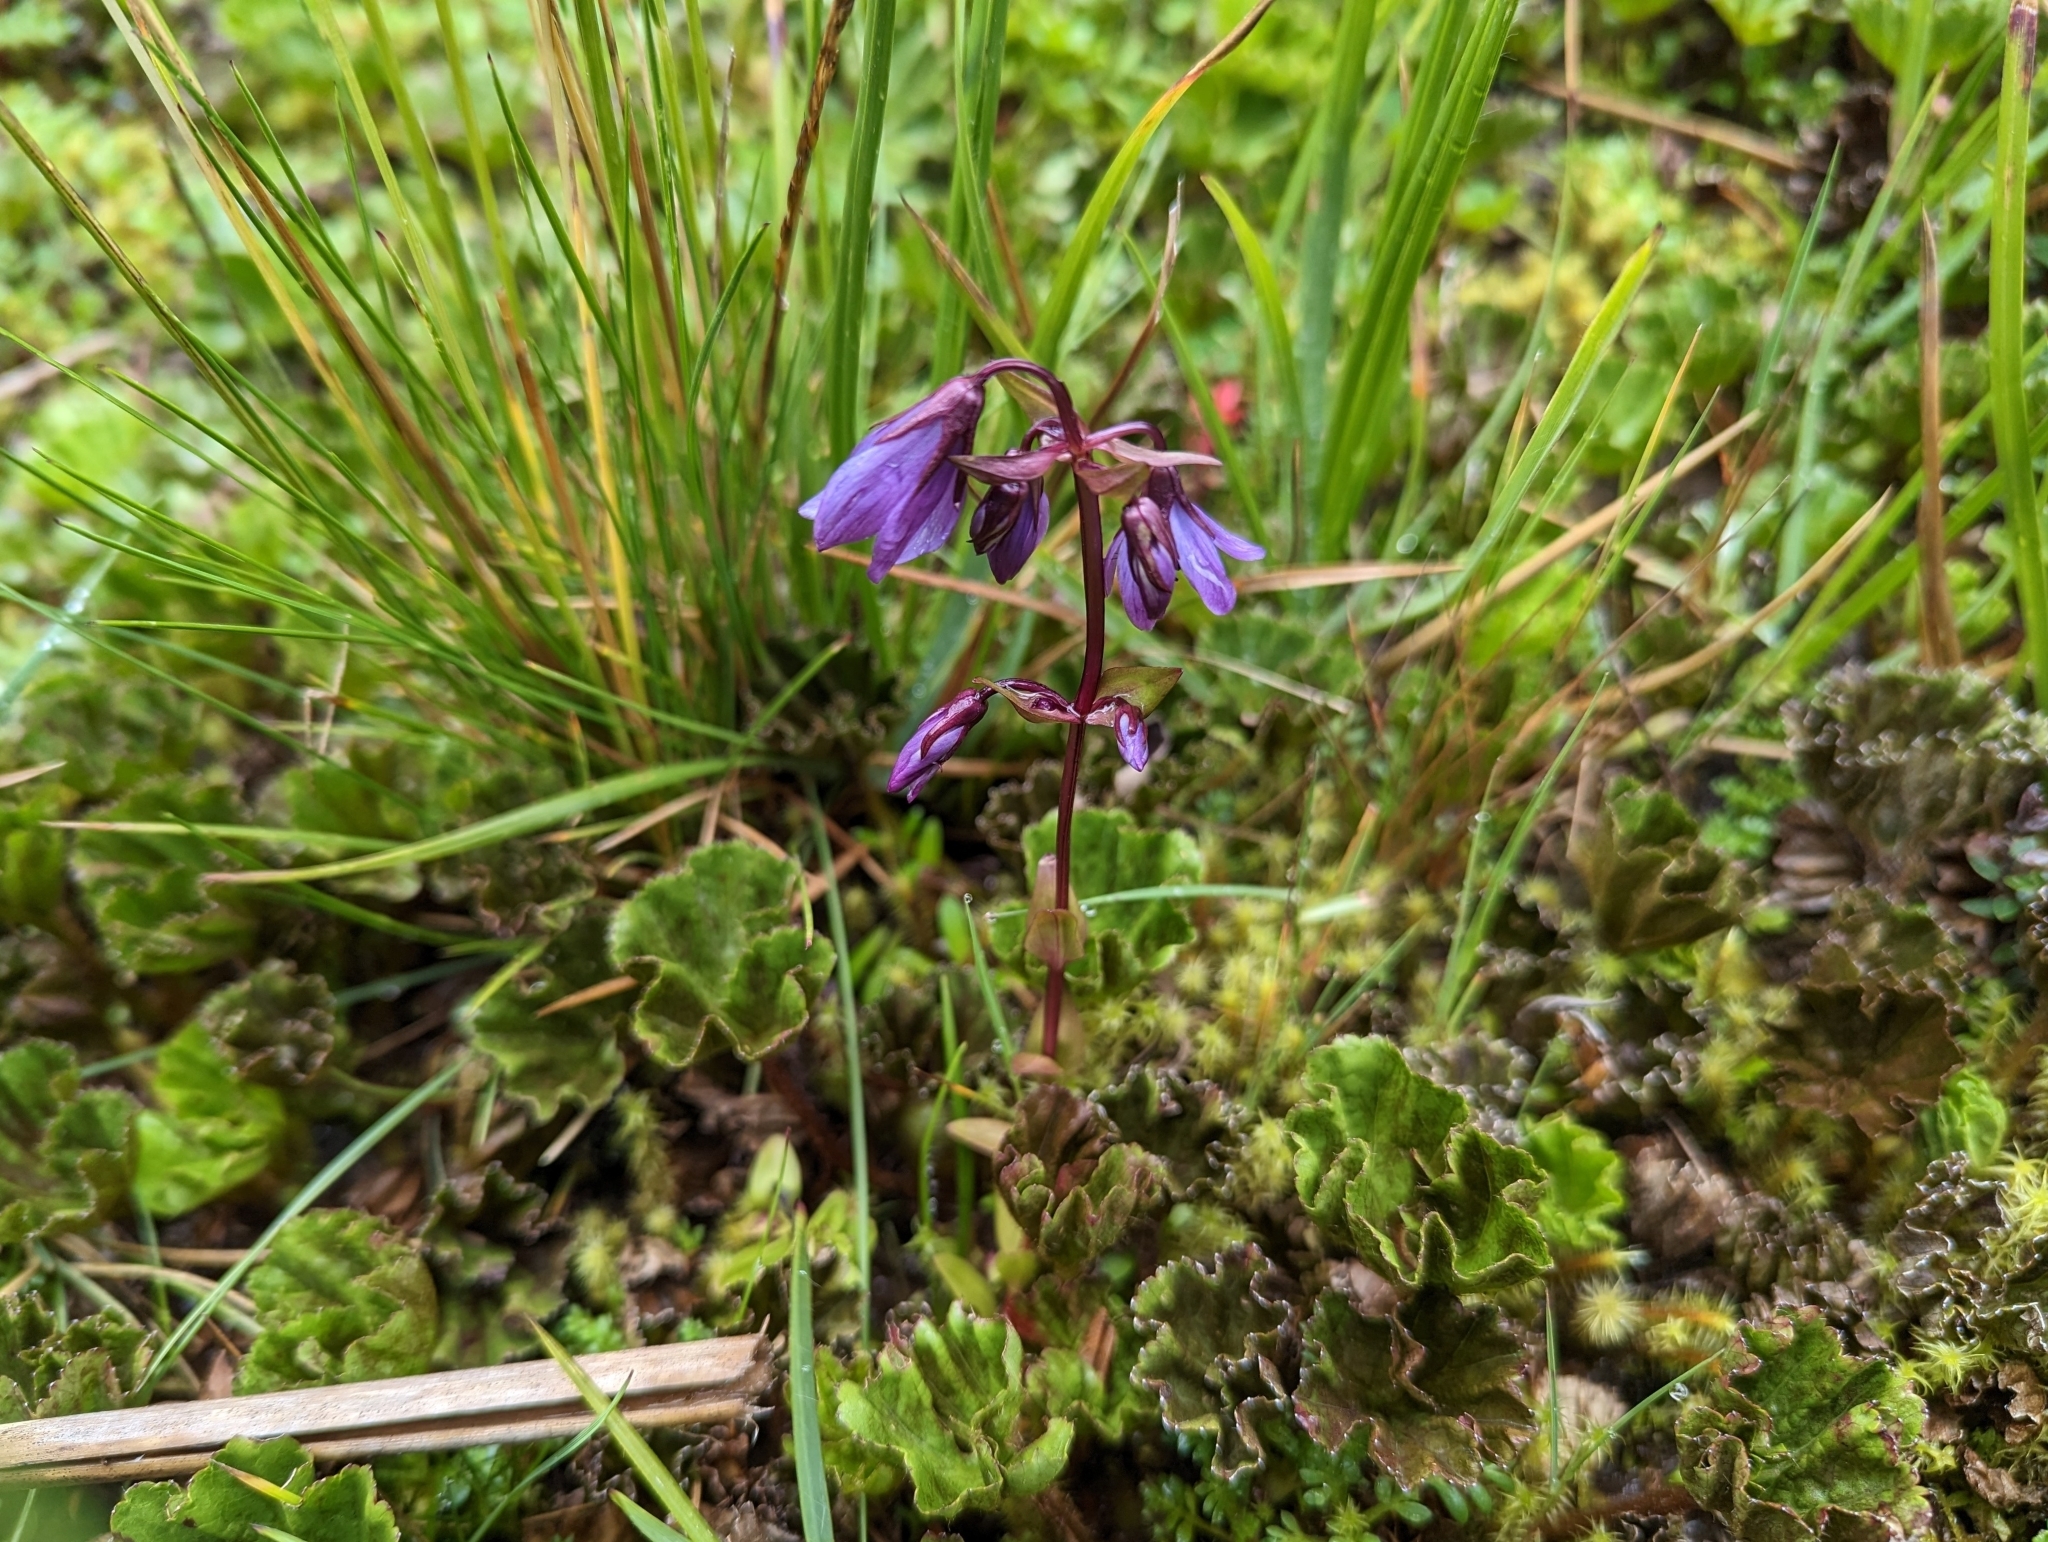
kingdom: Plantae
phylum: Tracheophyta
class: Magnoliopsida
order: Gentianales
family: Gentianaceae
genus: Gentianella
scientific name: Gentianella rapunculoides
